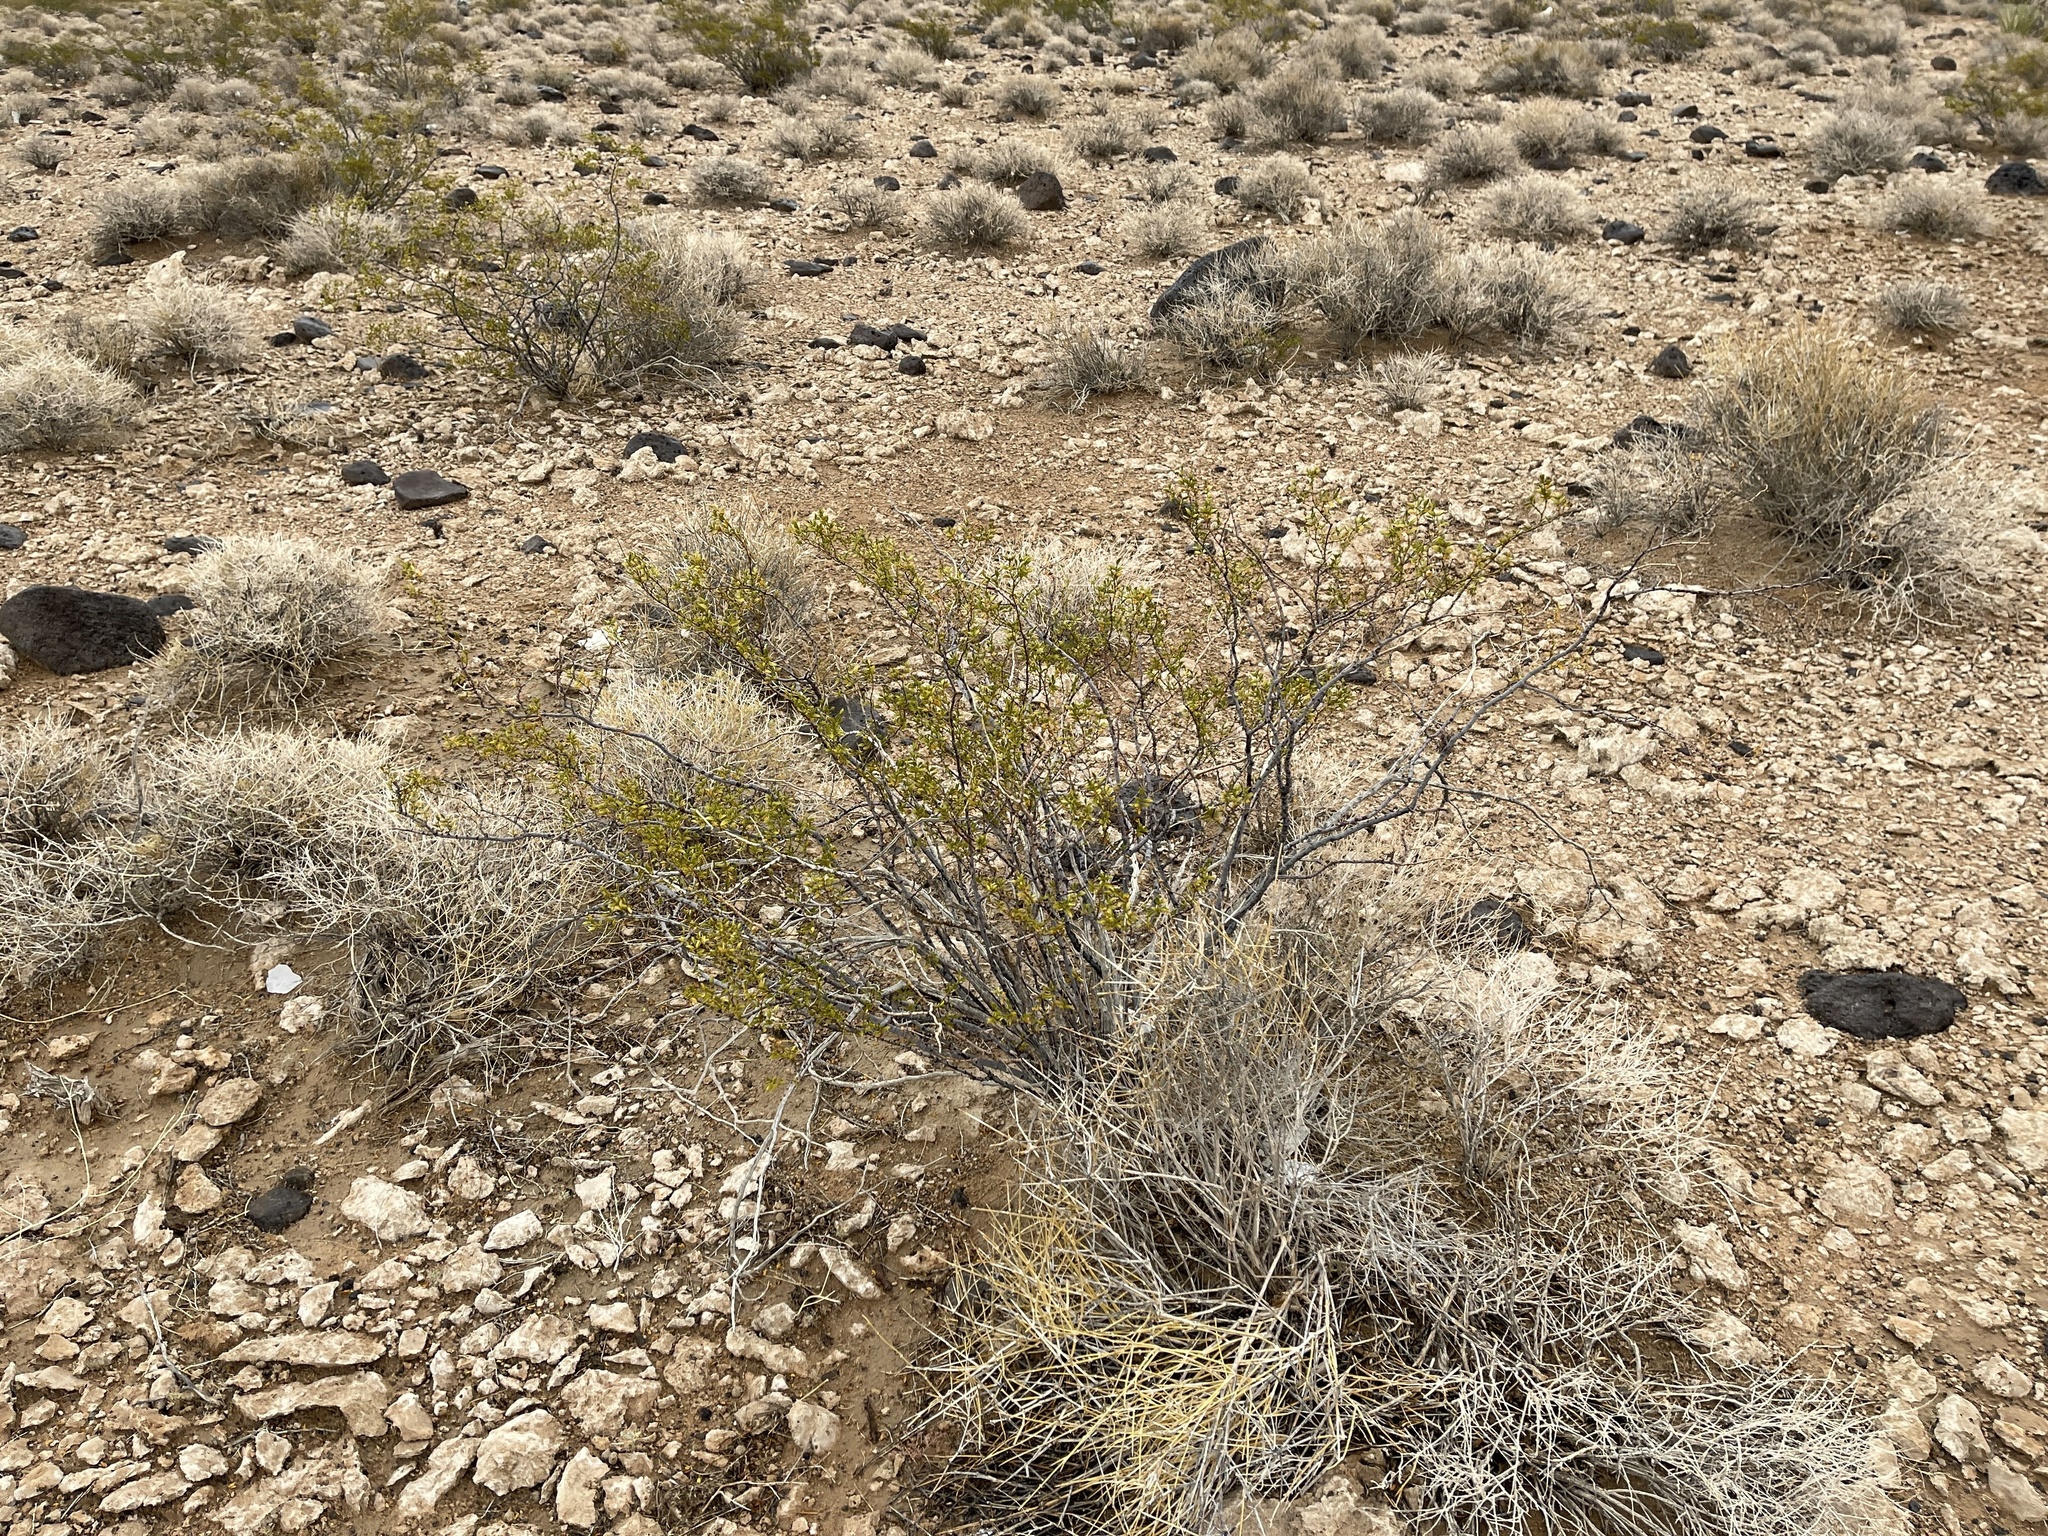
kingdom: Plantae
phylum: Tracheophyta
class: Magnoliopsida
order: Zygophyllales
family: Zygophyllaceae
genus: Larrea
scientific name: Larrea tridentata
